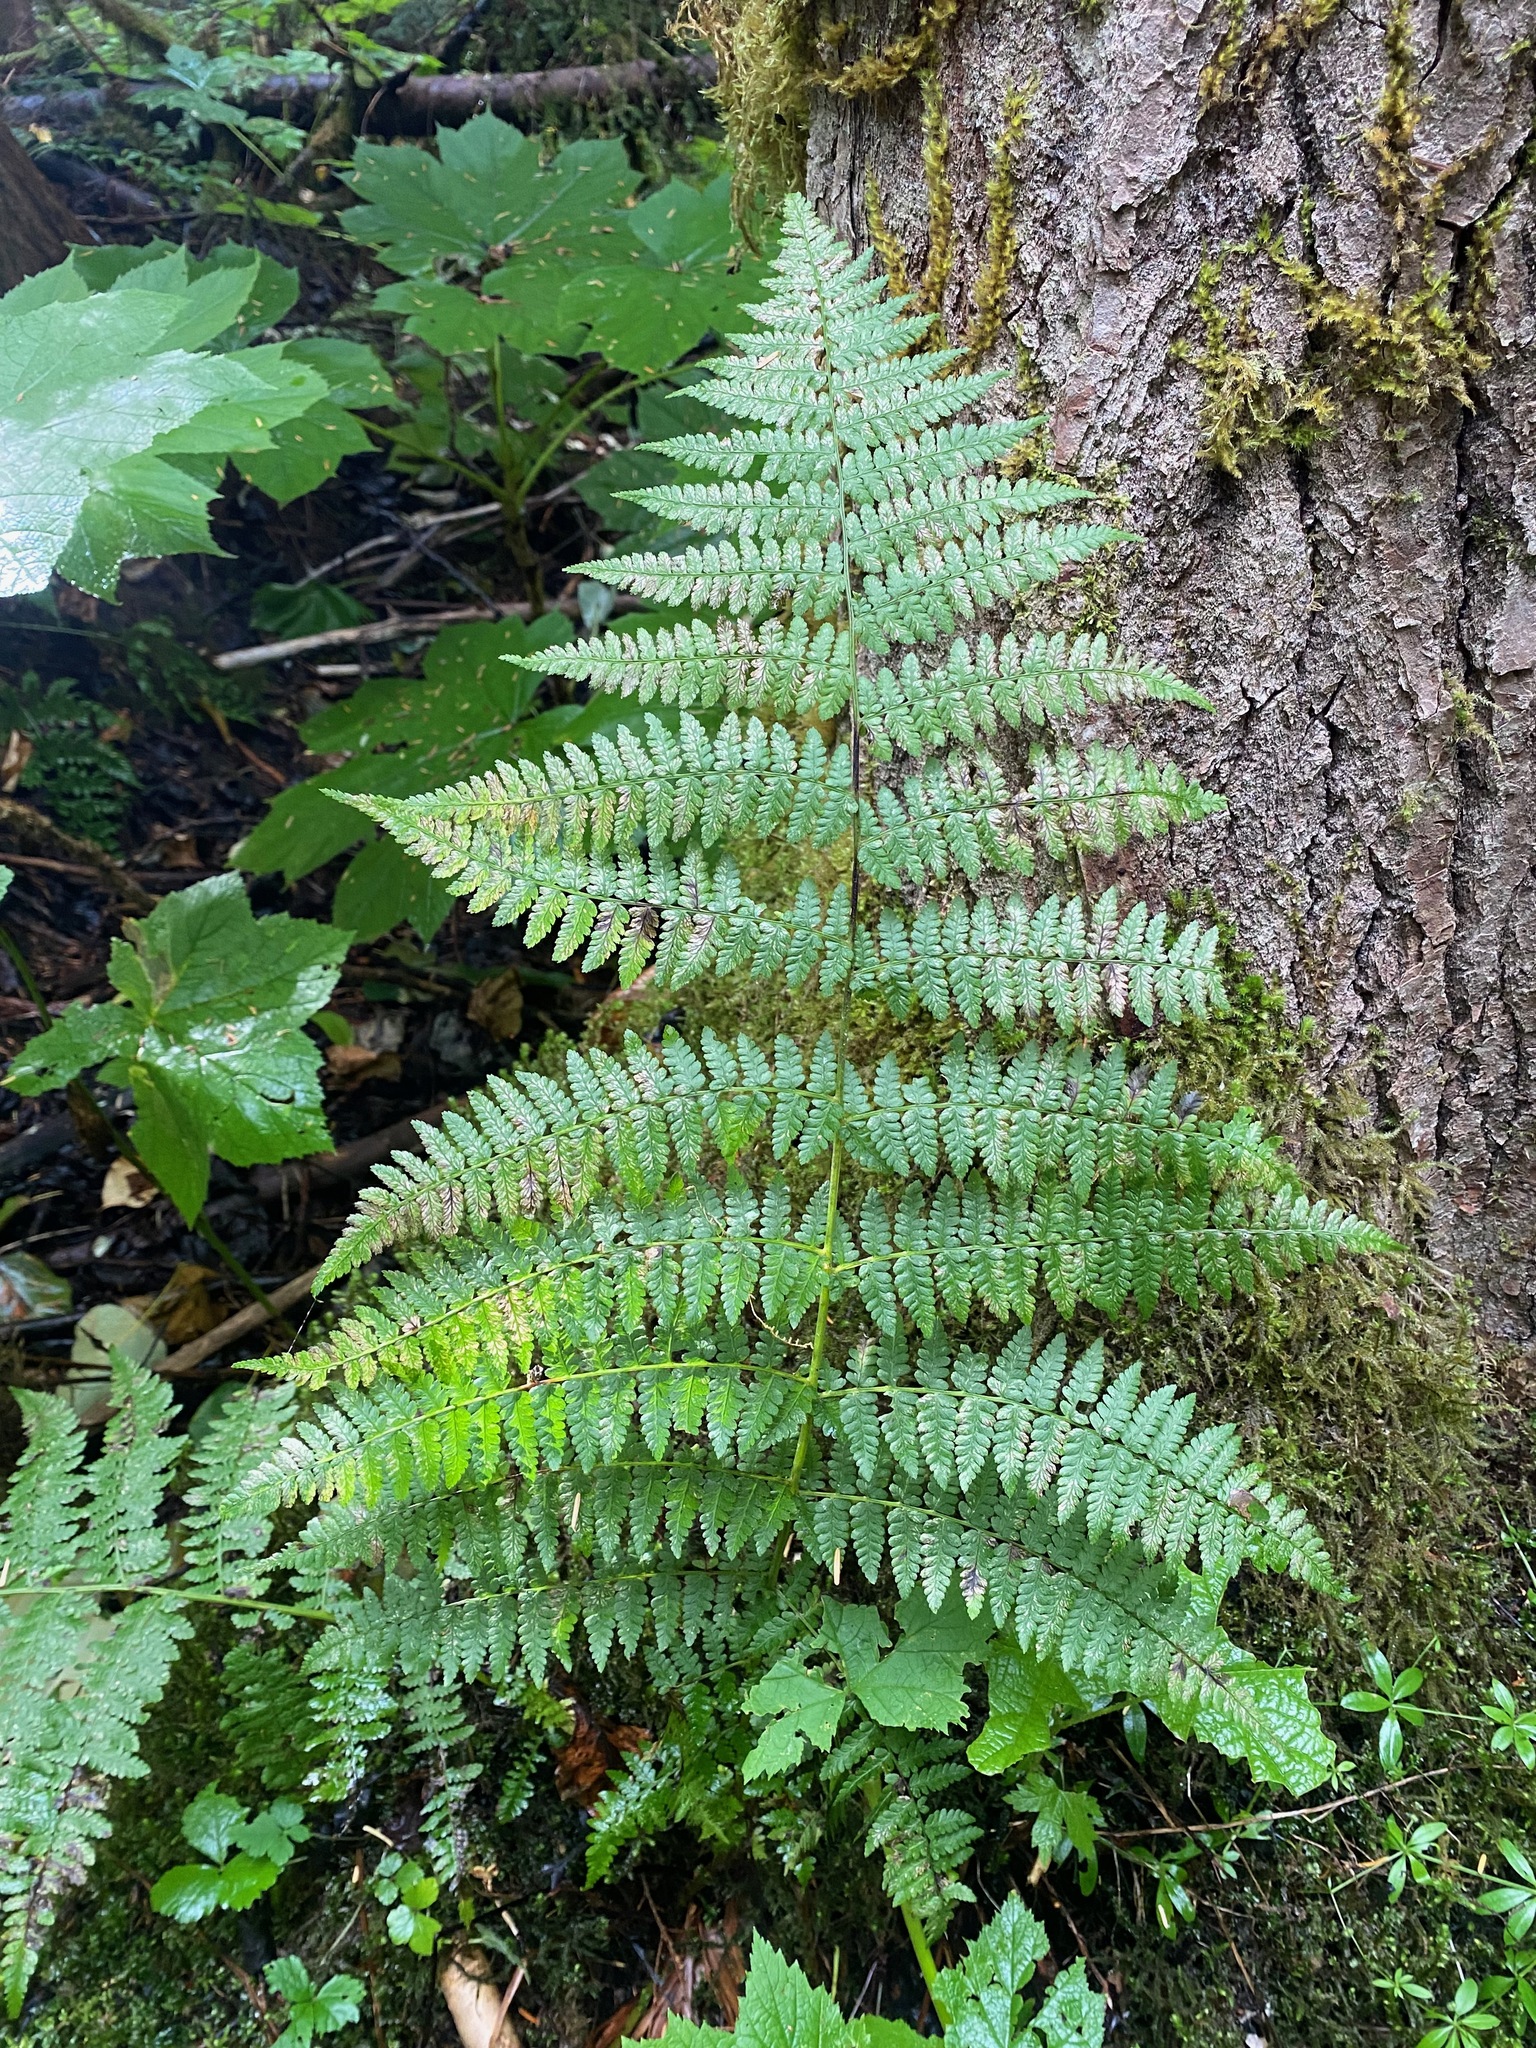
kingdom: Plantae
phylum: Tracheophyta
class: Polypodiopsida
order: Polypodiales
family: Athyriaceae
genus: Athyrium
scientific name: Athyrium cyclosorum
